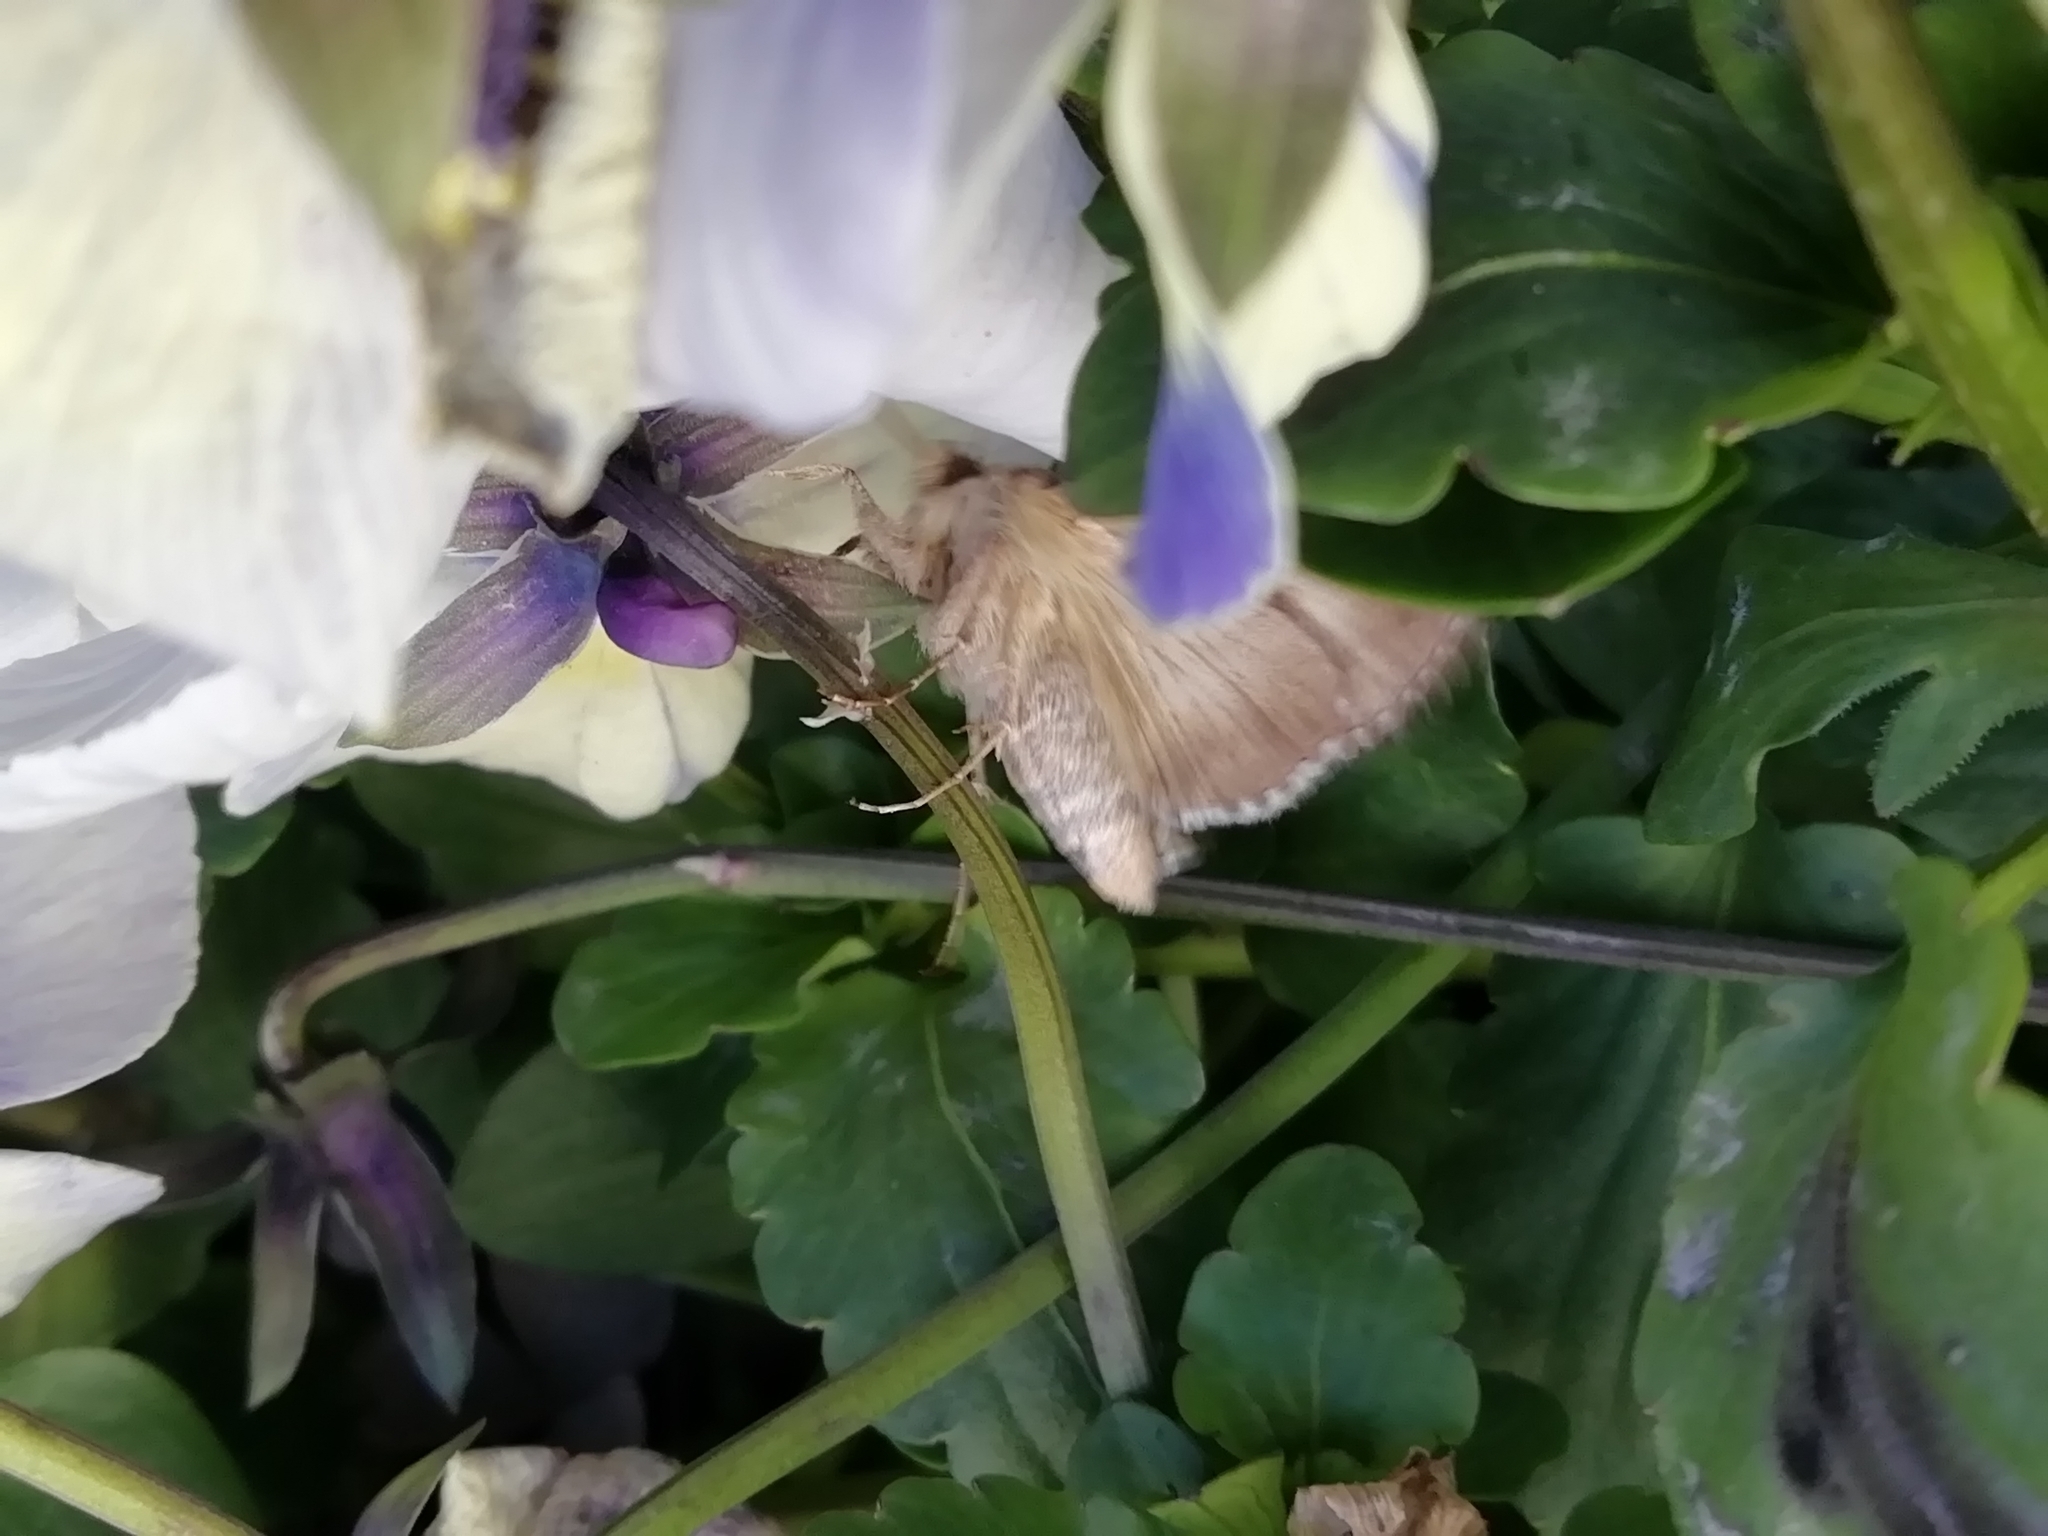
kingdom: Animalia
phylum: Arthropoda
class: Insecta
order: Lepidoptera
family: Noctuidae
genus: Autographa
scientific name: Autographa gamma
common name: Silver y
